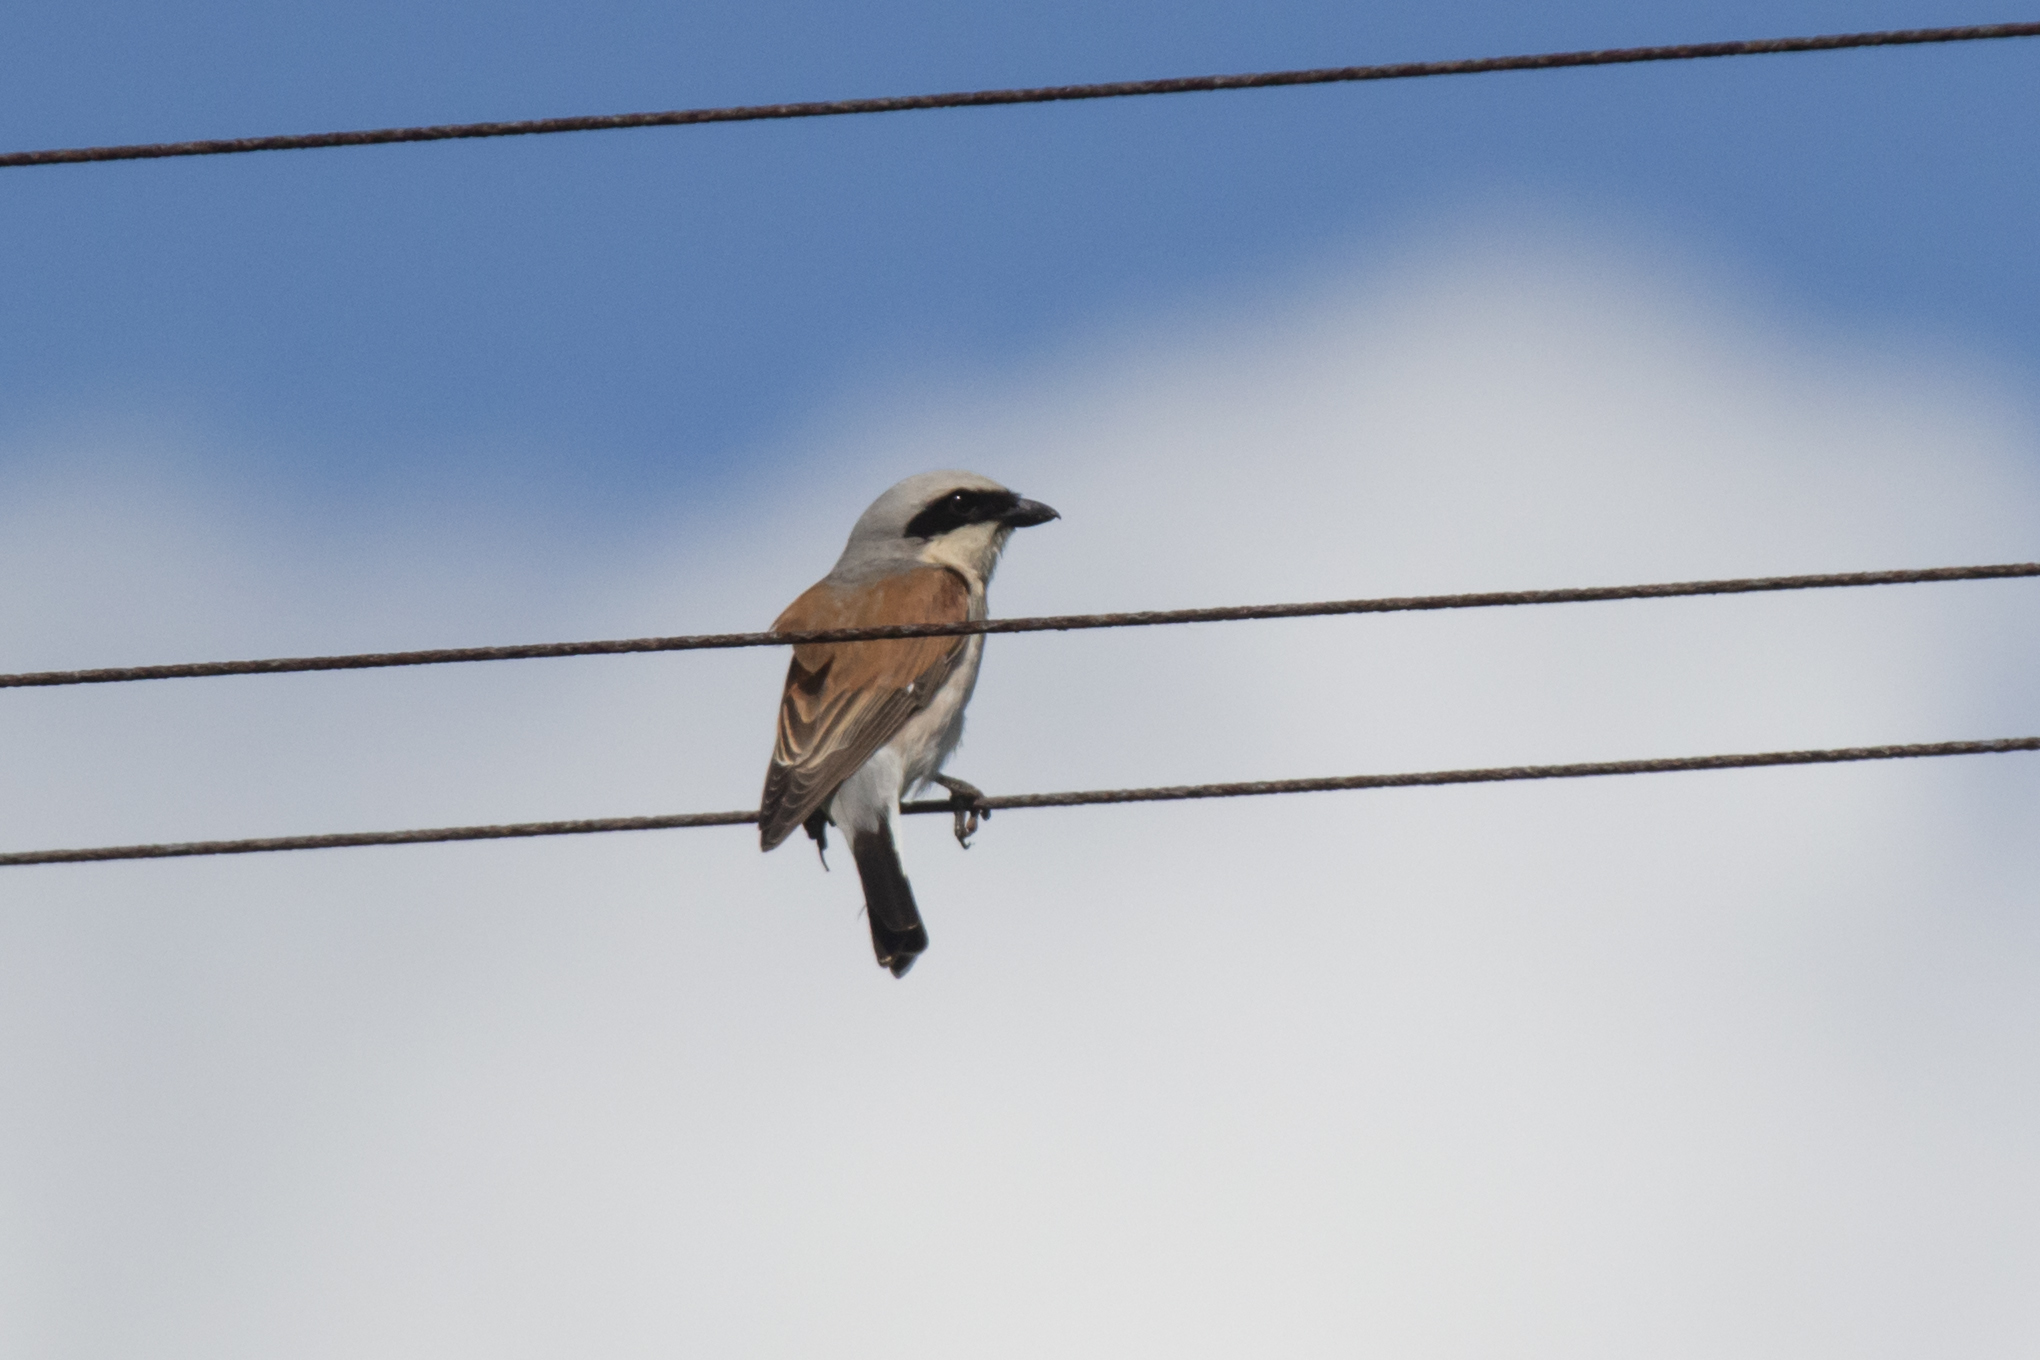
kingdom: Animalia
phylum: Chordata
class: Aves
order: Passeriformes
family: Laniidae
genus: Lanius
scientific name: Lanius collurio
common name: Red-backed shrike
